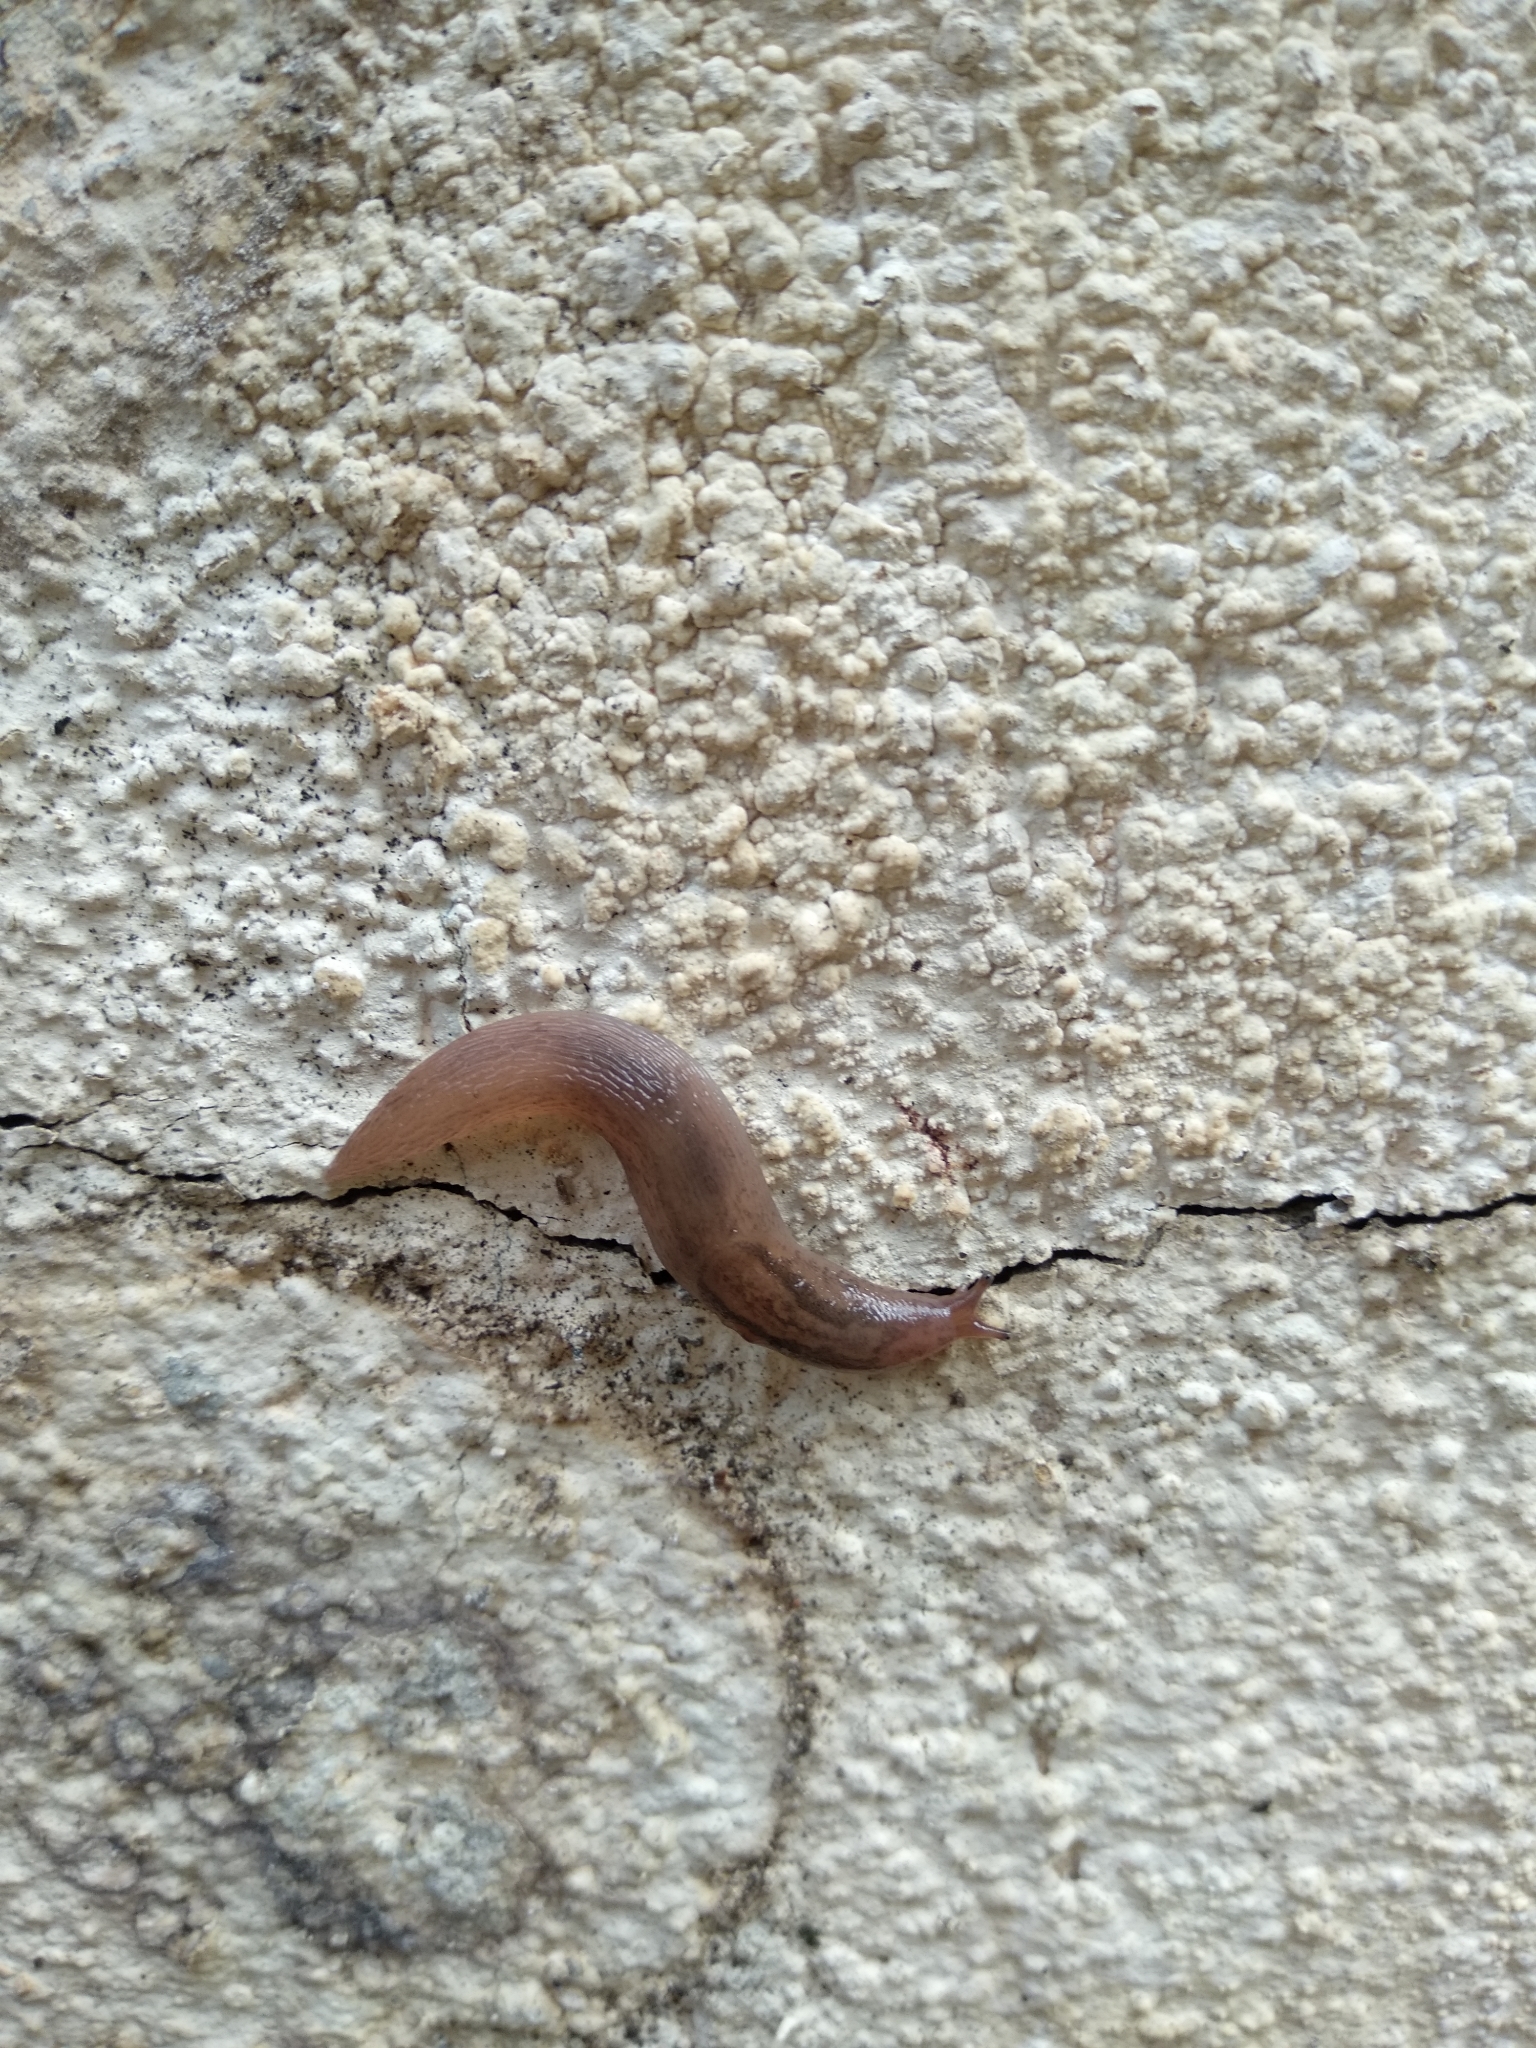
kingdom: Animalia
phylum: Mollusca
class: Gastropoda
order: Stylommatophora
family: Limacidae
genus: Ambigolimax
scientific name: Ambigolimax valentianus
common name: Greenhouse slug
